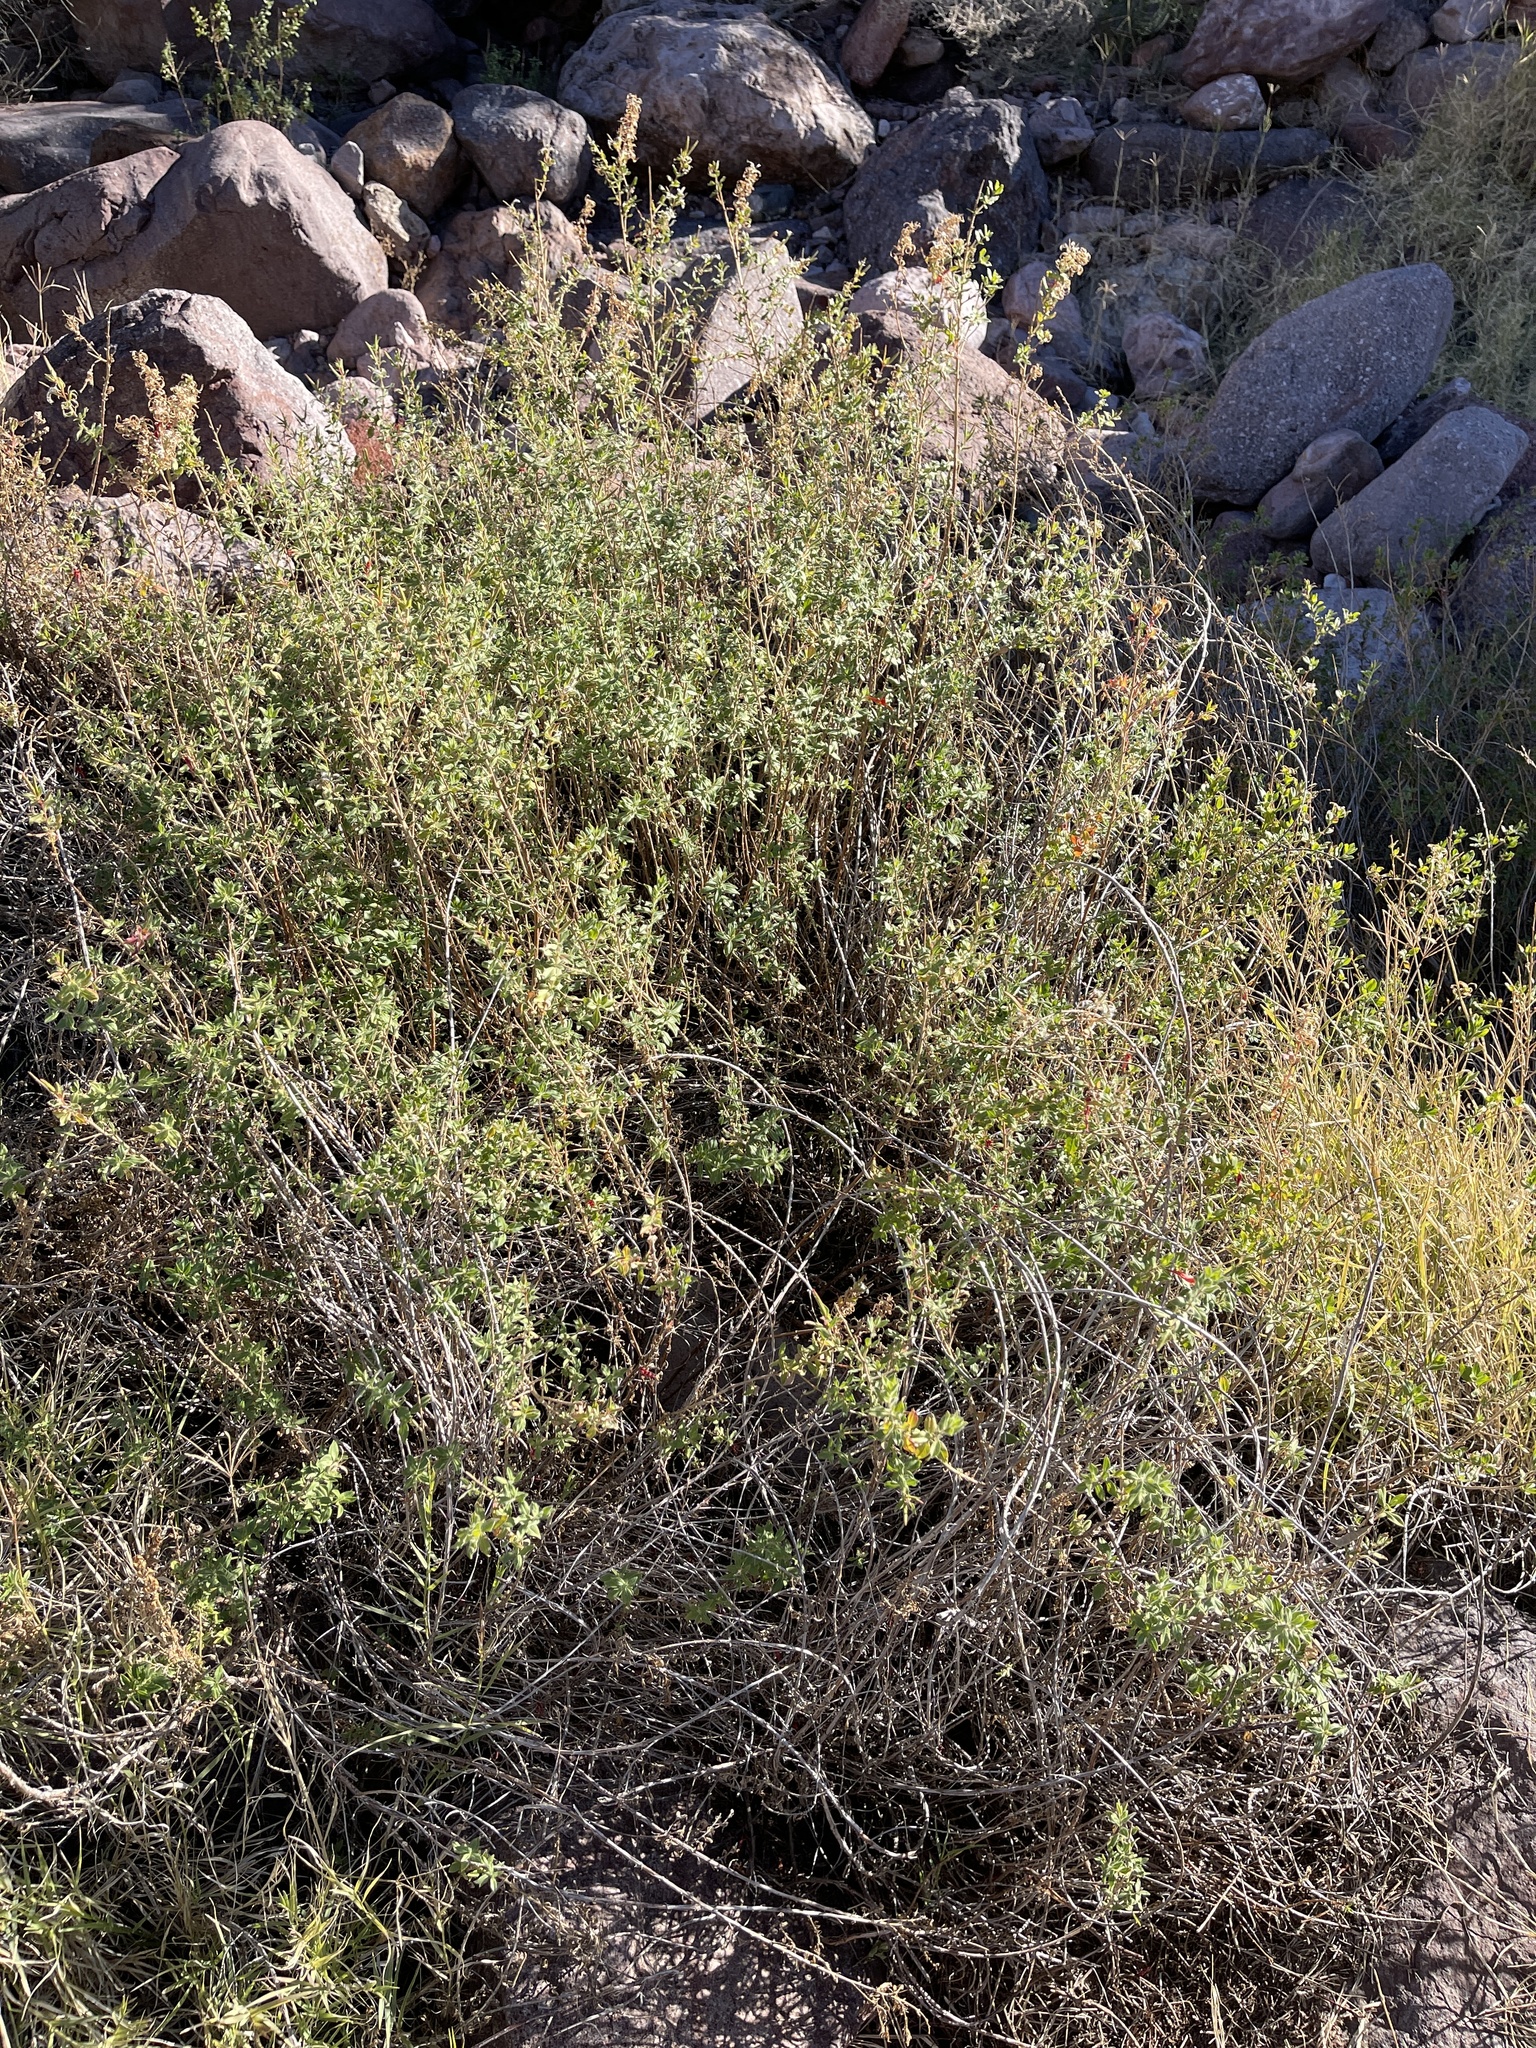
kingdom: Plantae
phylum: Tracheophyta
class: Magnoliopsida
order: Myrtales
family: Onagraceae
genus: Epilobium
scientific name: Epilobium canum
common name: California-fuchsia
